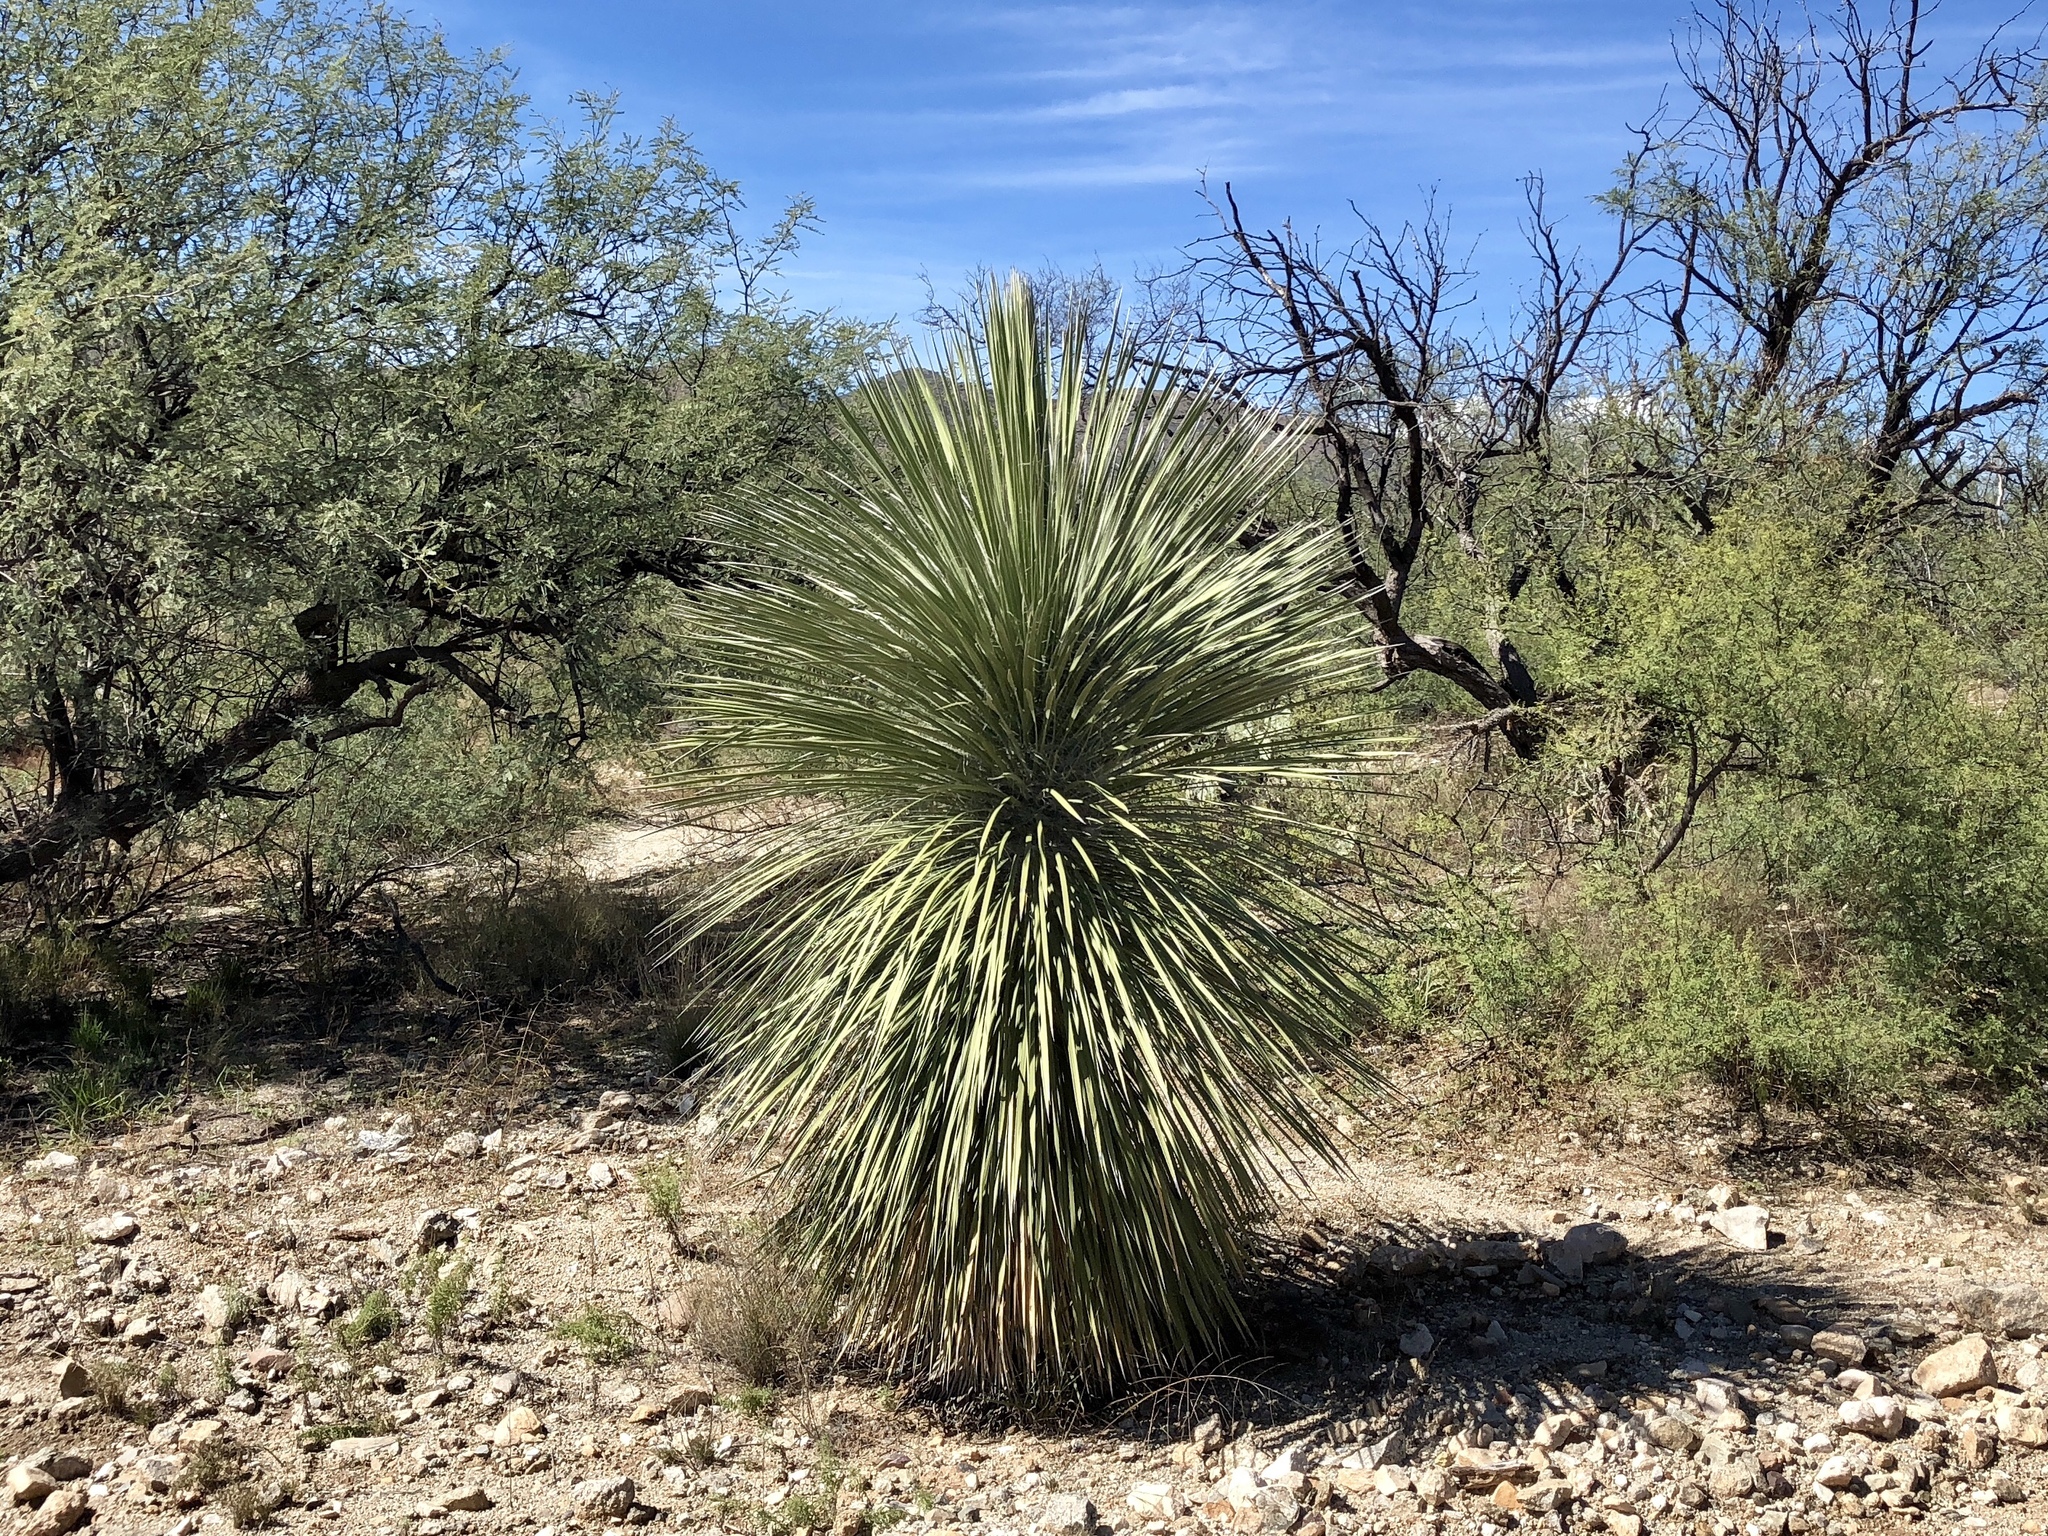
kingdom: Plantae
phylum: Tracheophyta
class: Liliopsida
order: Asparagales
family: Asparagaceae
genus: Yucca
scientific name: Yucca elata
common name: Palmella
